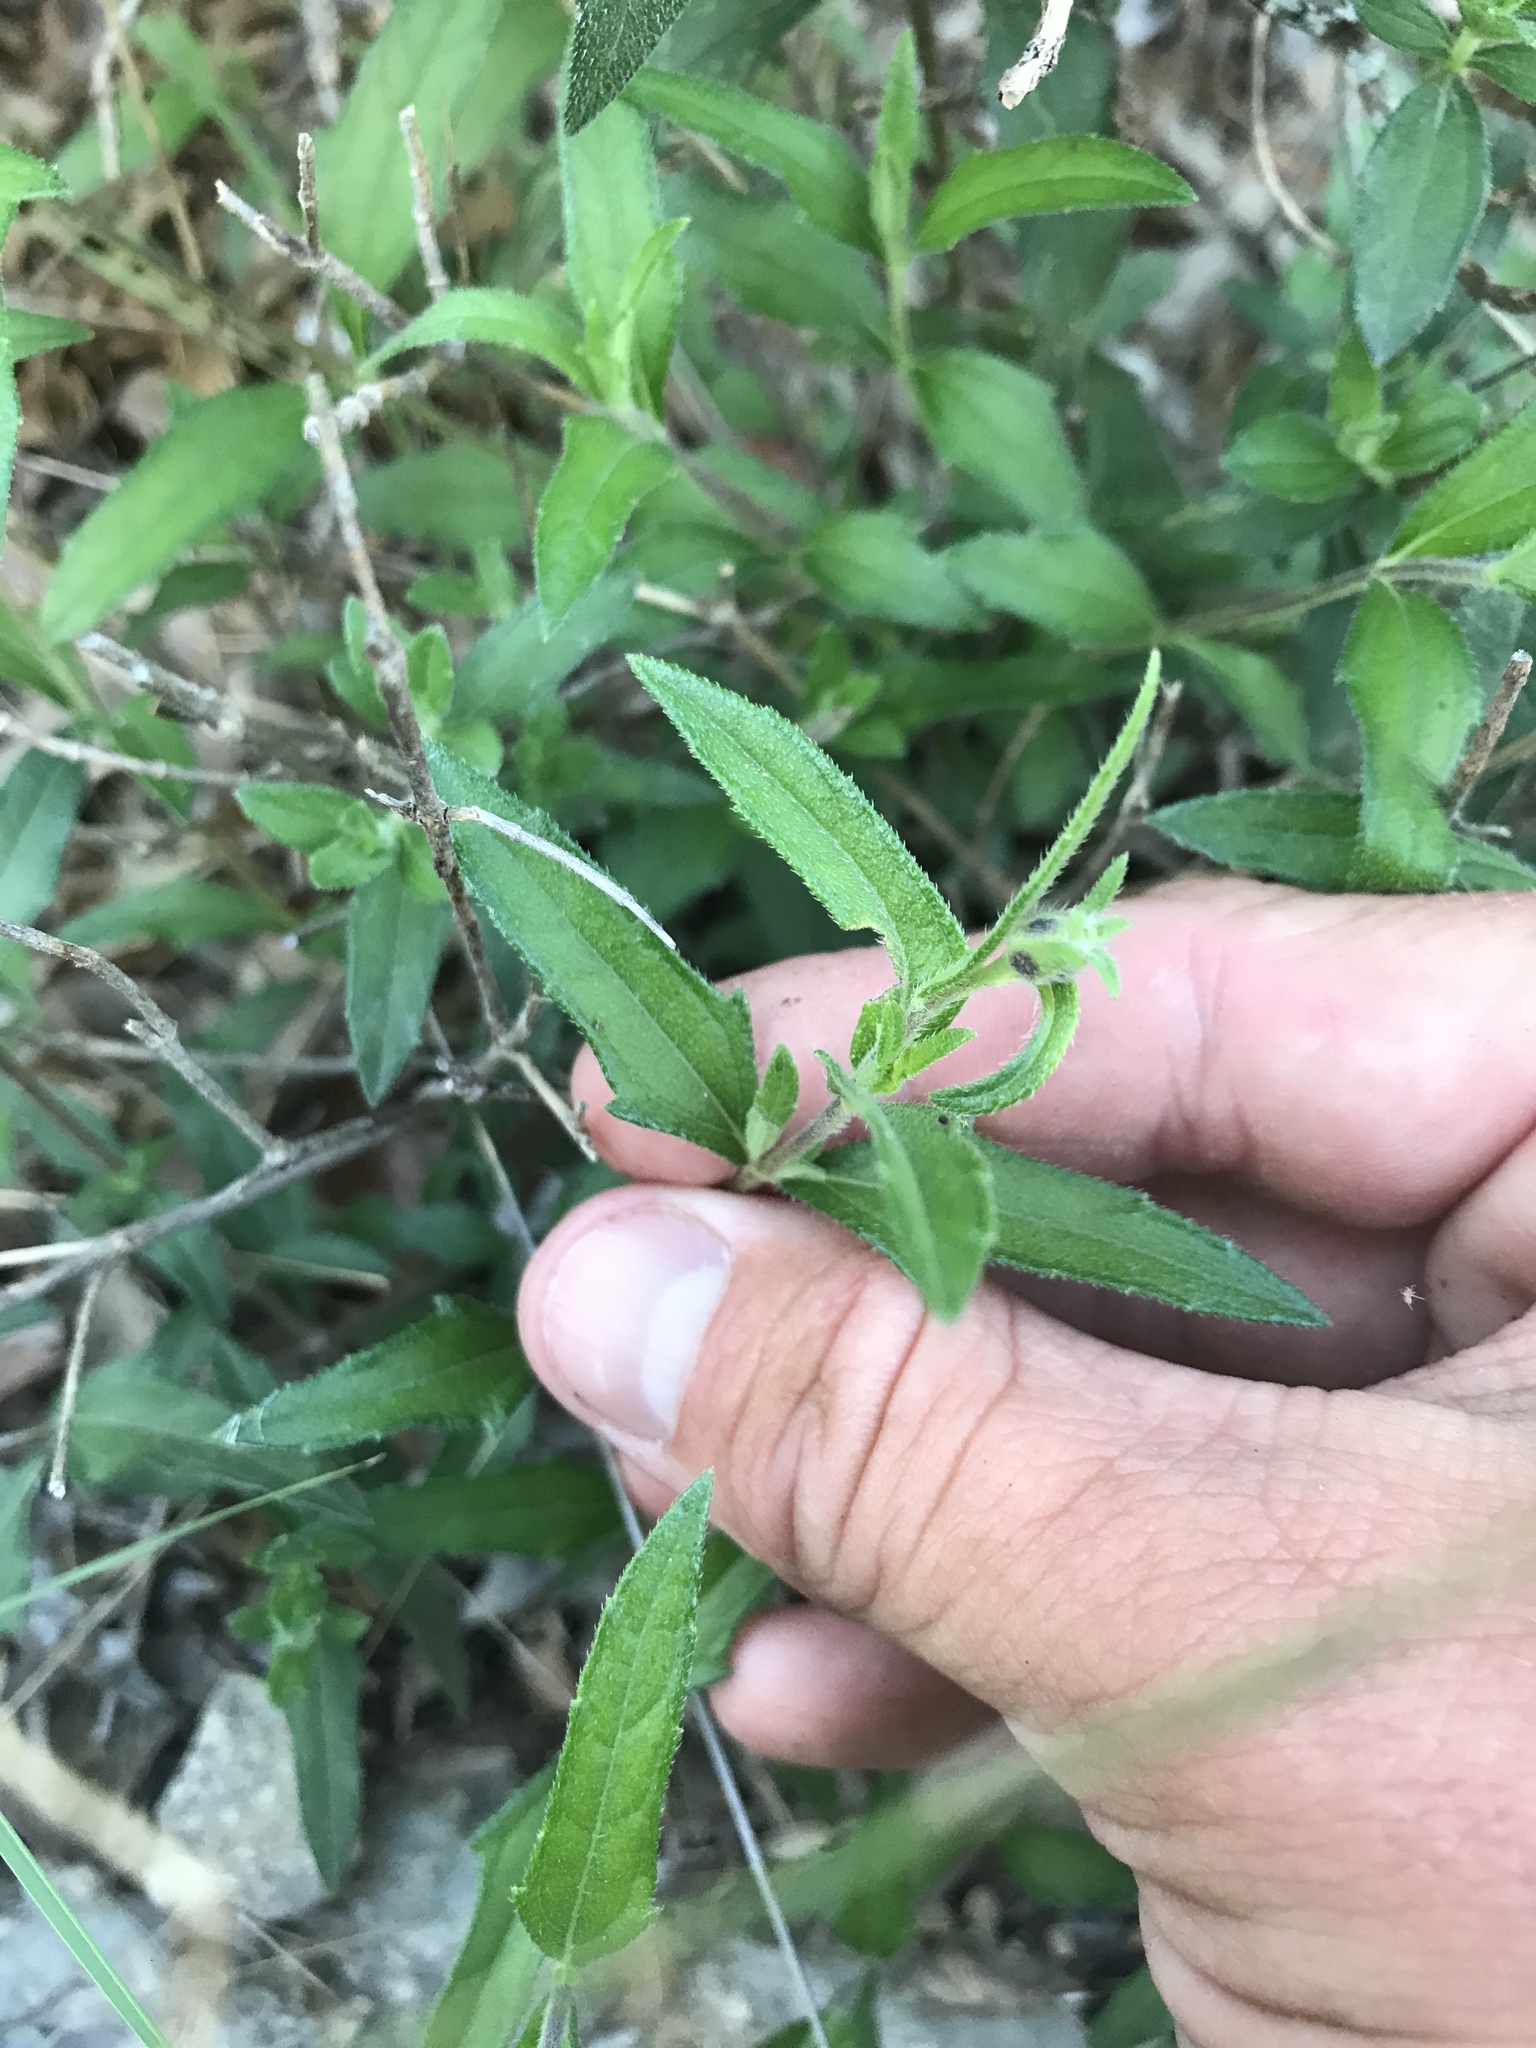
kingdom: Plantae
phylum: Tracheophyta
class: Magnoliopsida
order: Asterales
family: Asteraceae
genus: Wedelia
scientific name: Wedelia acapulcensis
